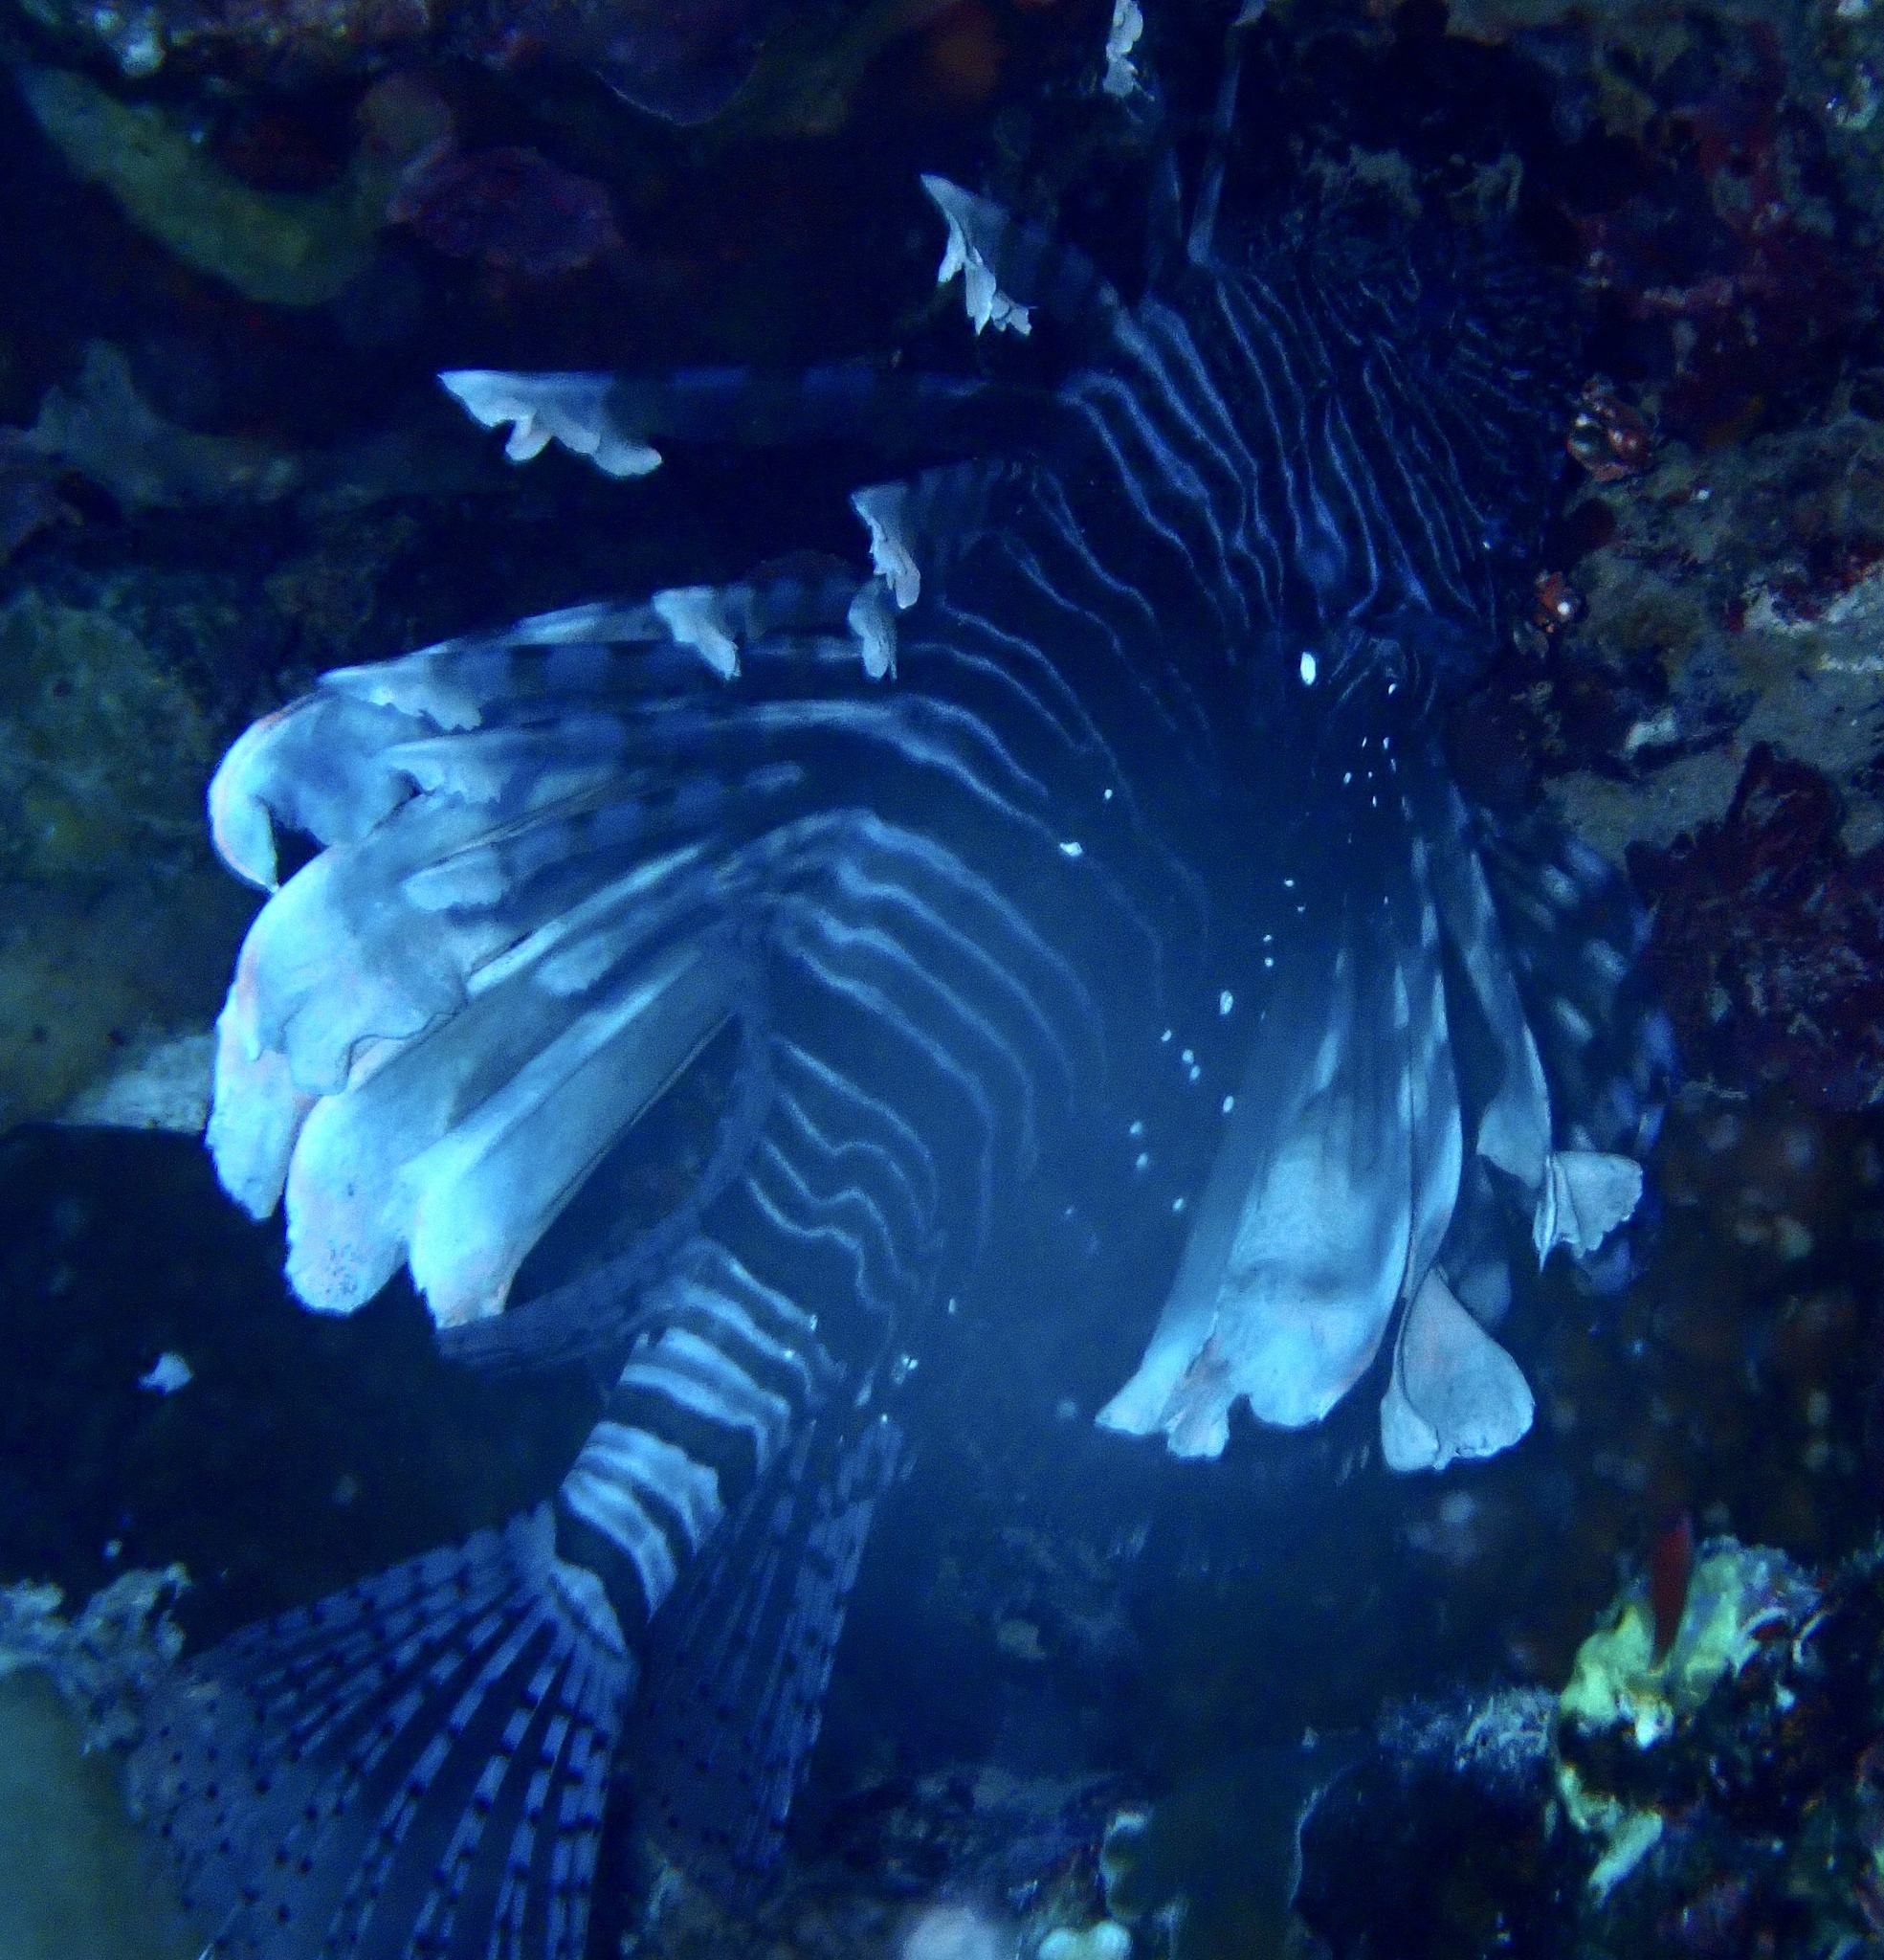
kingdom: Animalia
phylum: Chordata
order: Scorpaeniformes
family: Scorpaenidae
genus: Pterois
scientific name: Pterois miles
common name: Devil firefish
